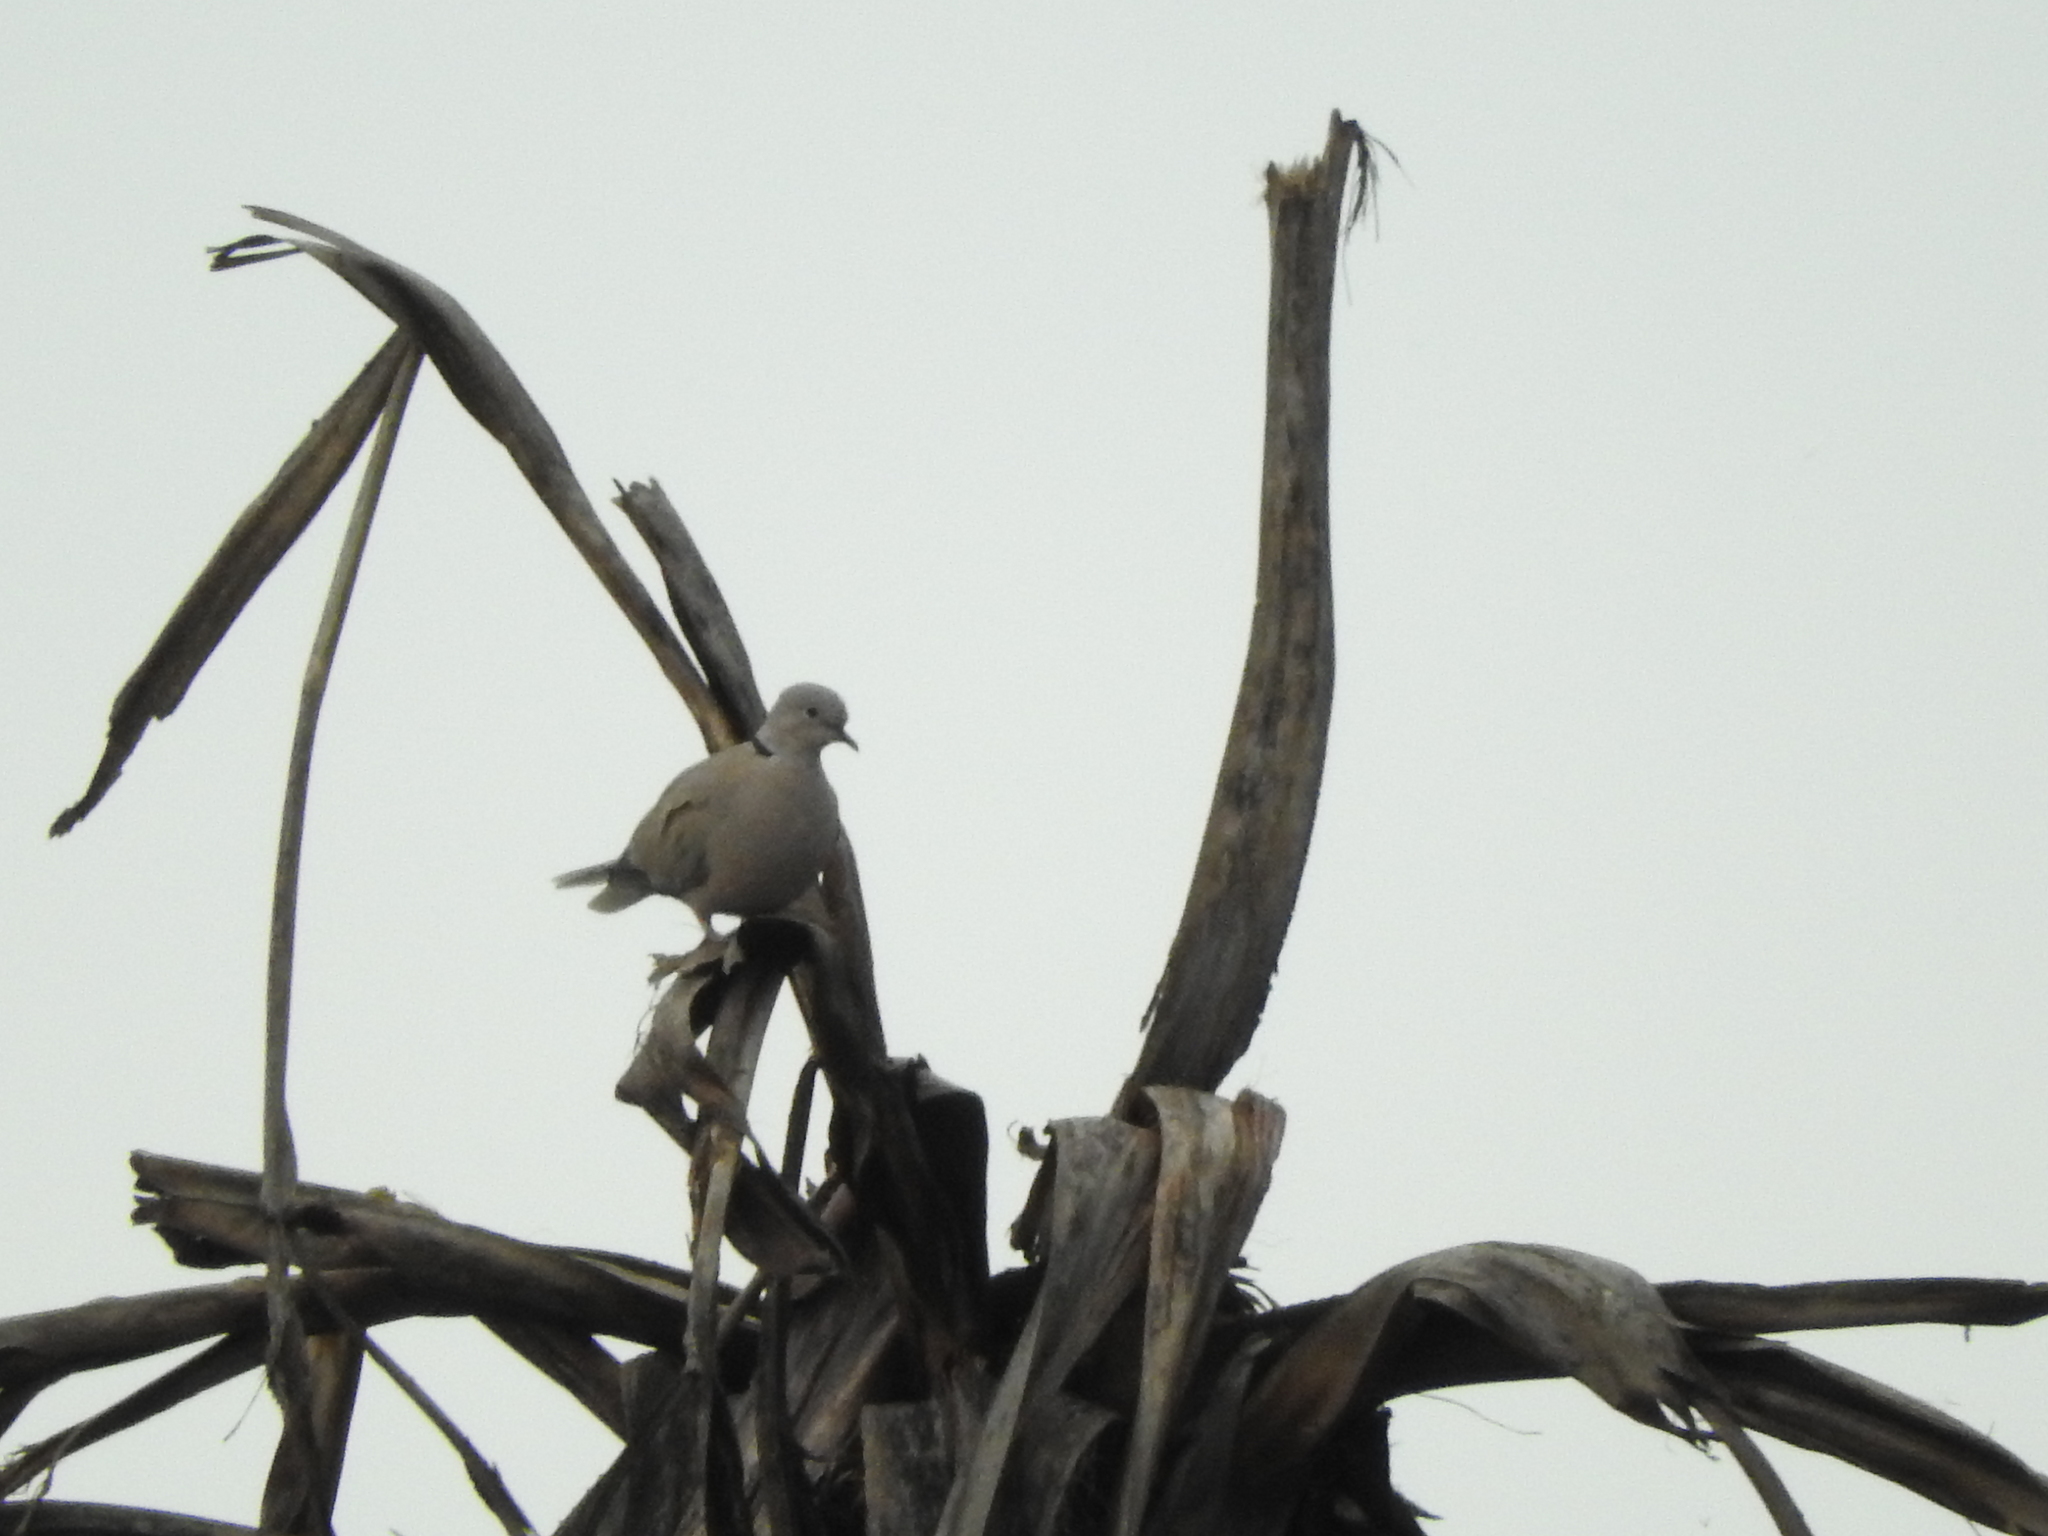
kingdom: Animalia
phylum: Chordata
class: Aves
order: Columbiformes
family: Columbidae
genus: Streptopelia
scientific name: Streptopelia decaocto
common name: Eurasian collared dove
